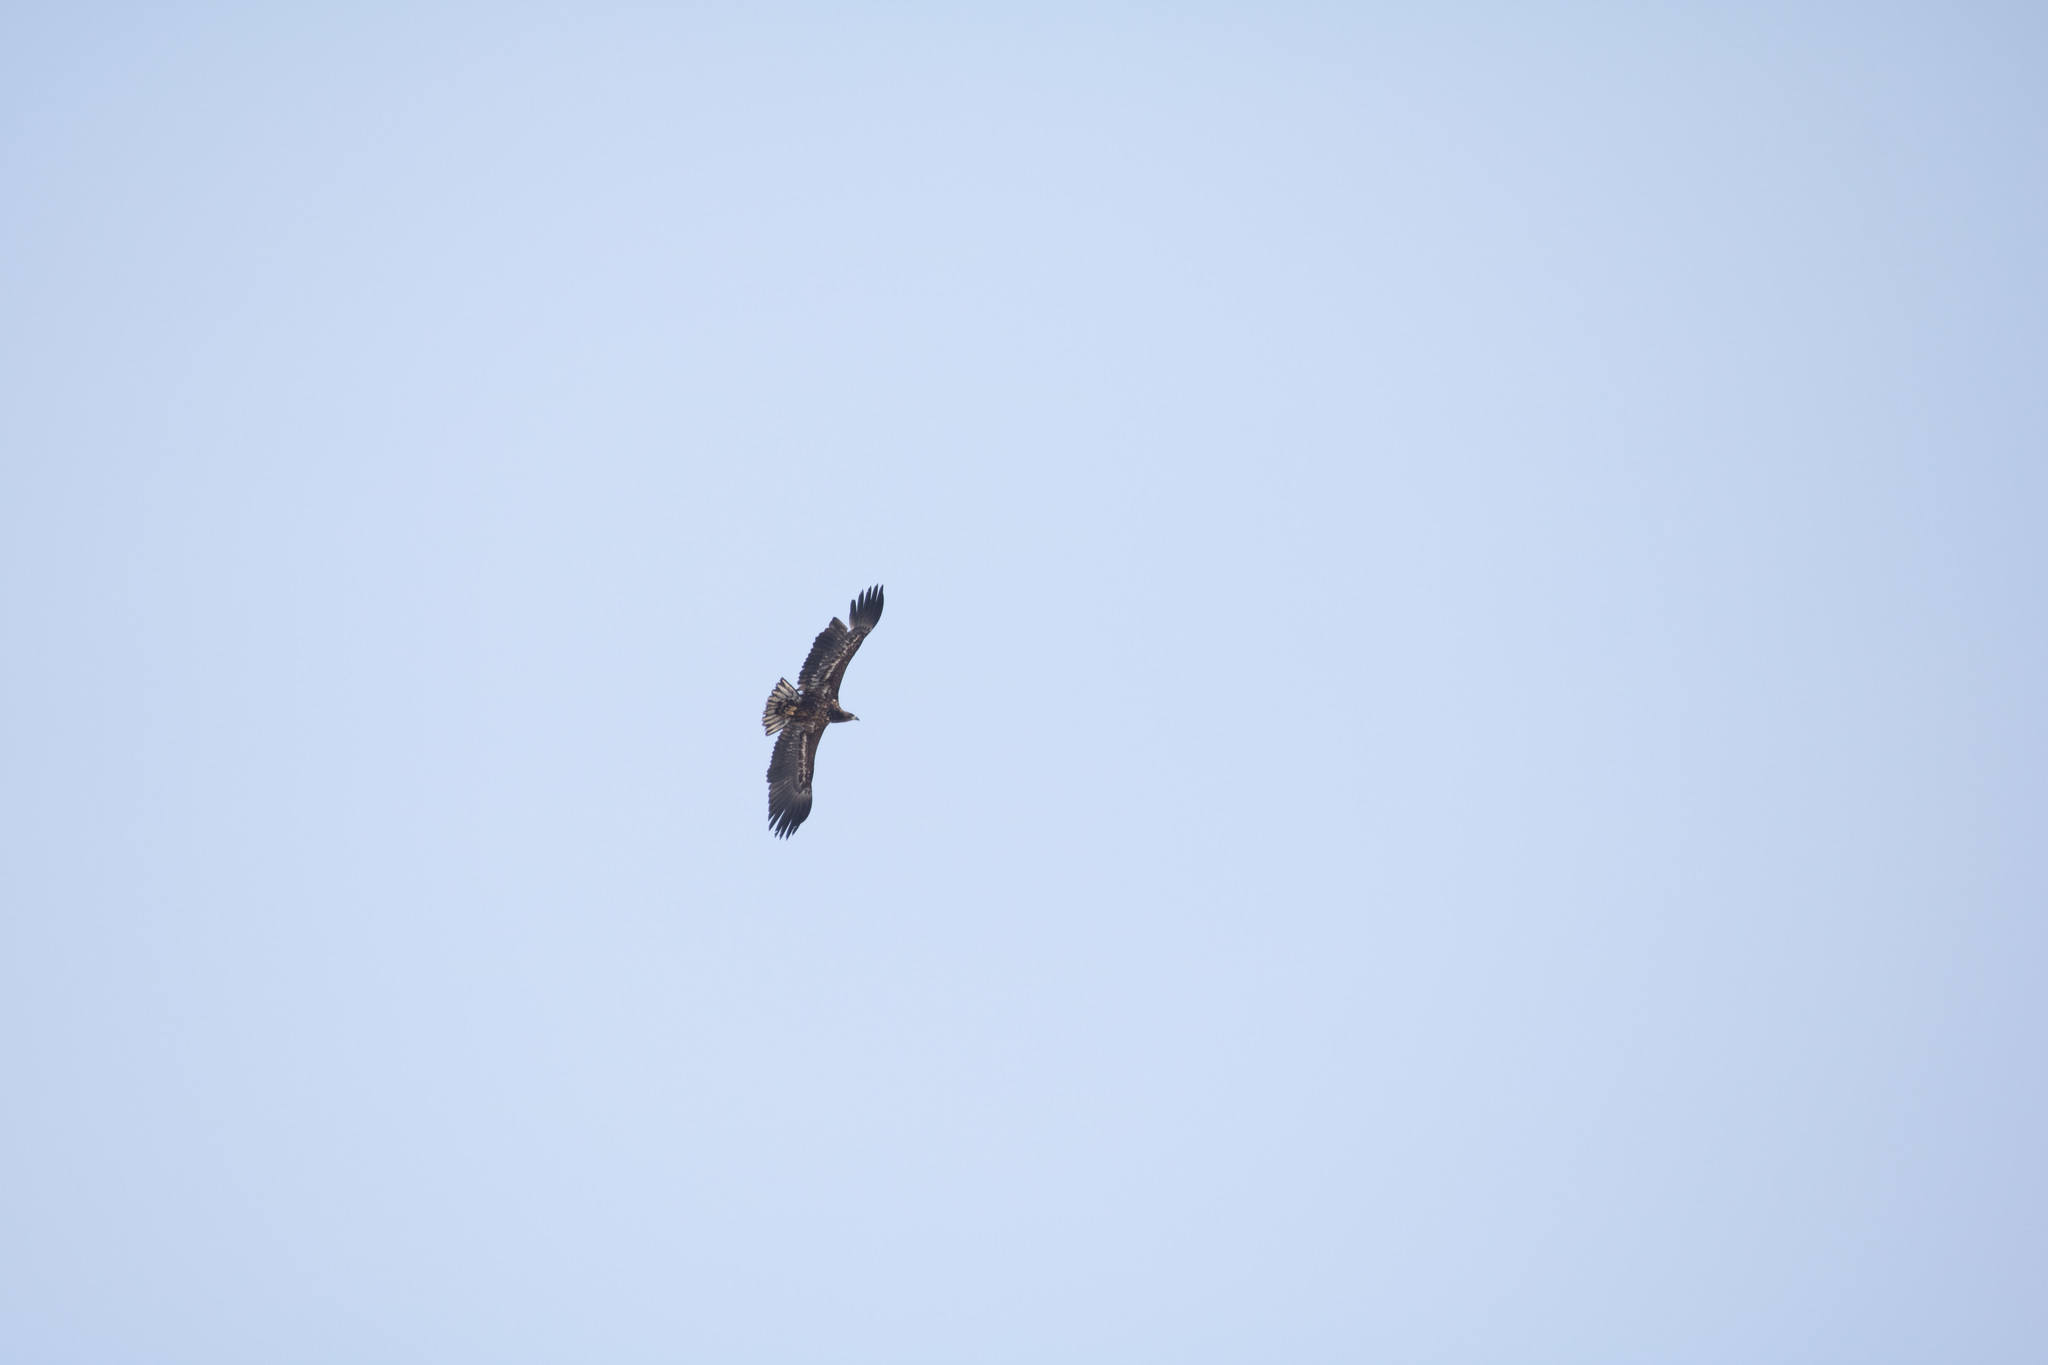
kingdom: Animalia
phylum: Chordata
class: Aves
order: Accipitriformes
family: Accipitridae
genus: Haliaeetus
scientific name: Haliaeetus albicilla
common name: White-tailed eagle
